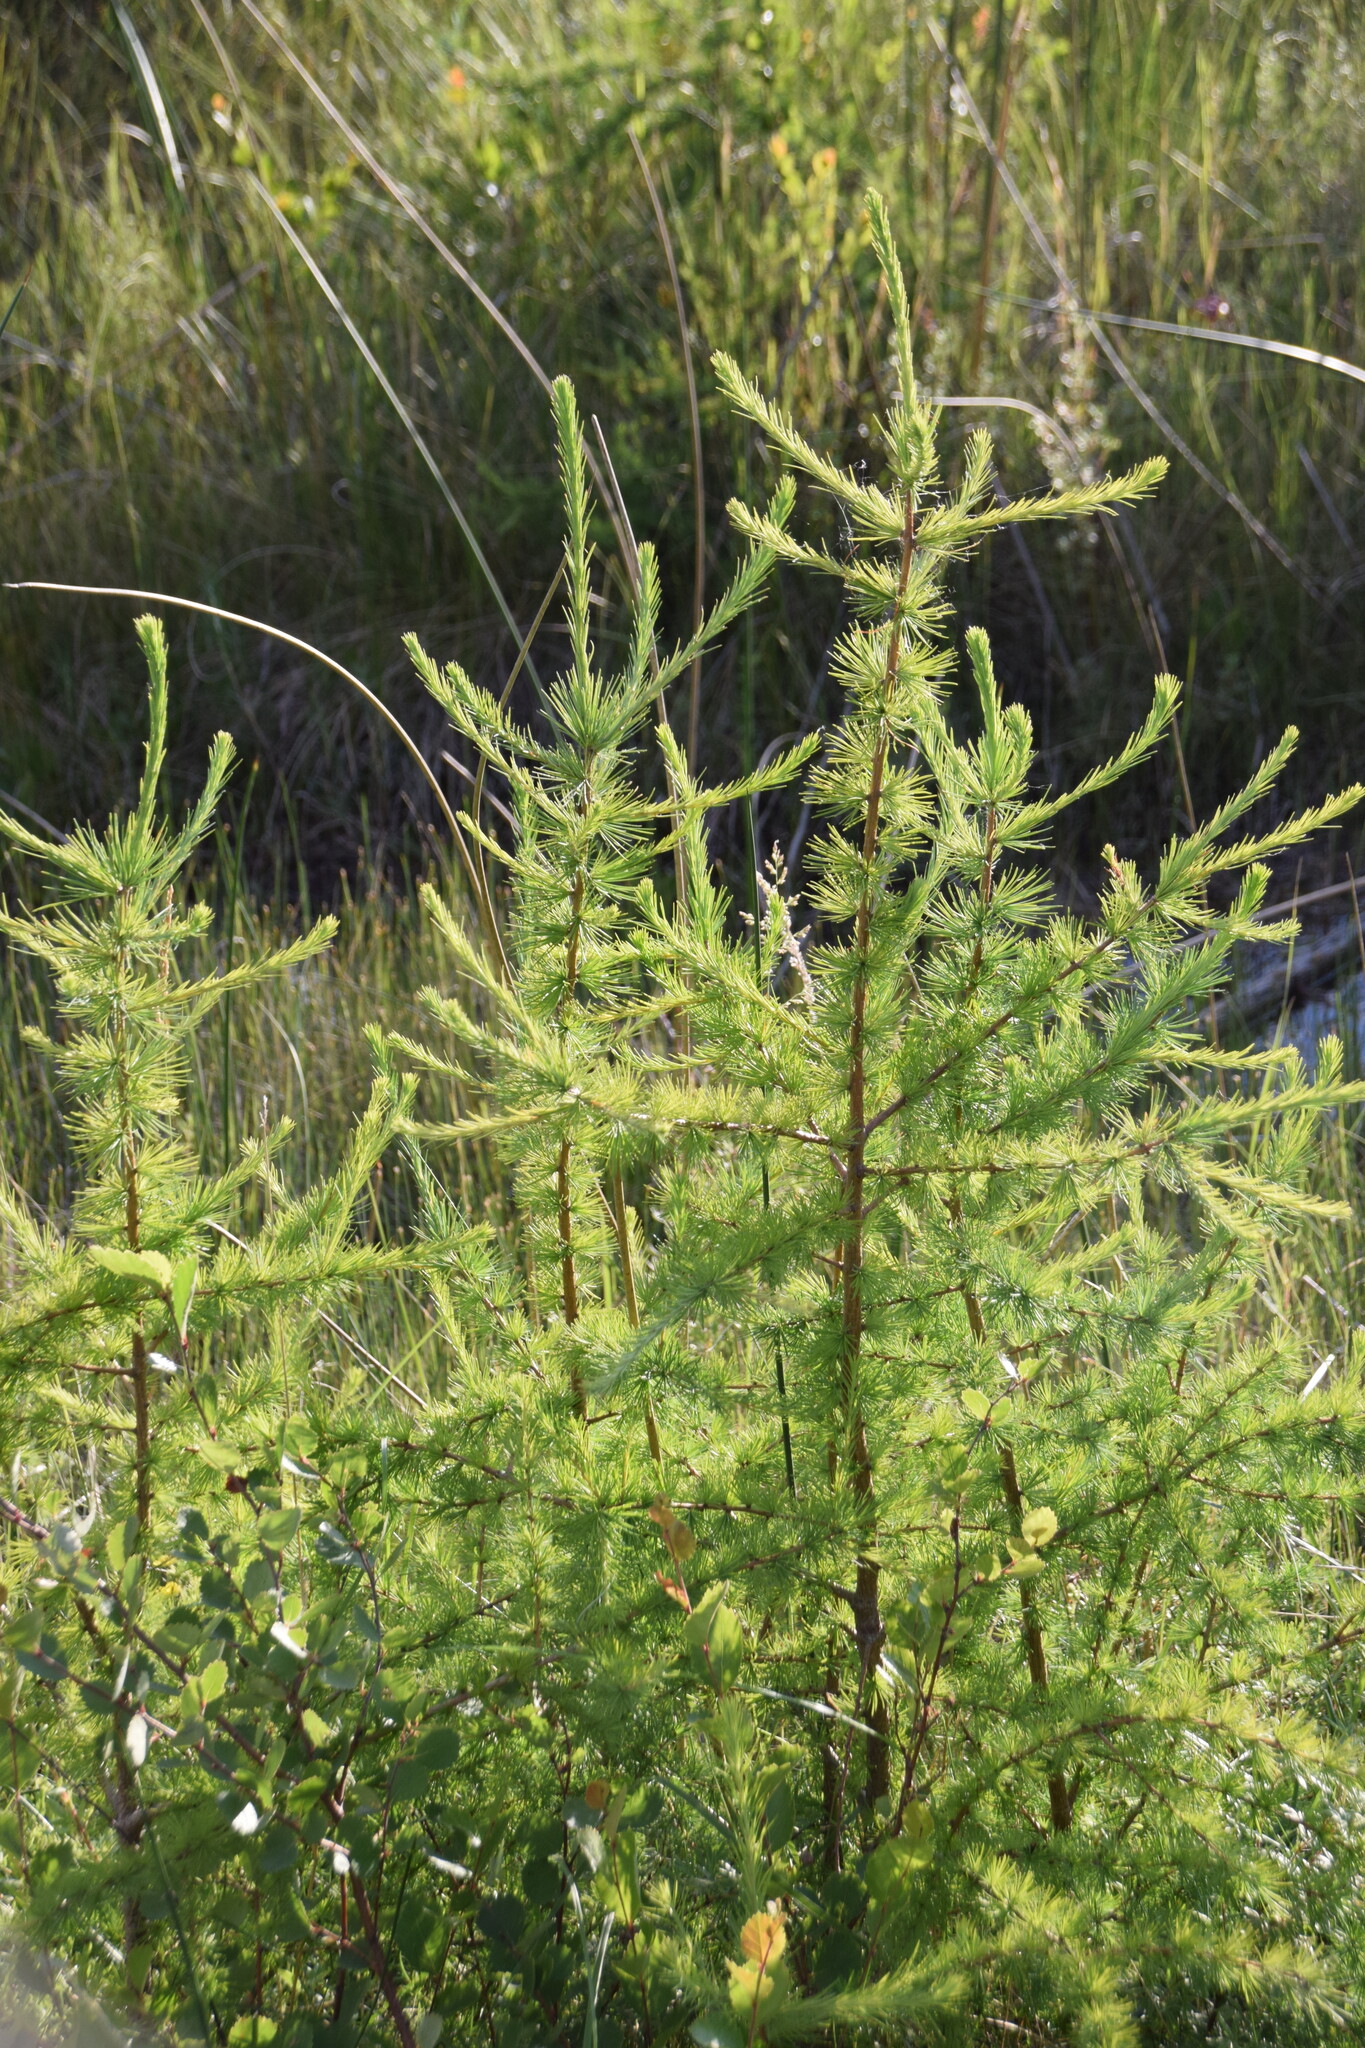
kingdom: Plantae
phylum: Tracheophyta
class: Pinopsida
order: Pinales
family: Pinaceae
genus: Larix
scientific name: Larix laricina
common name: American larch
